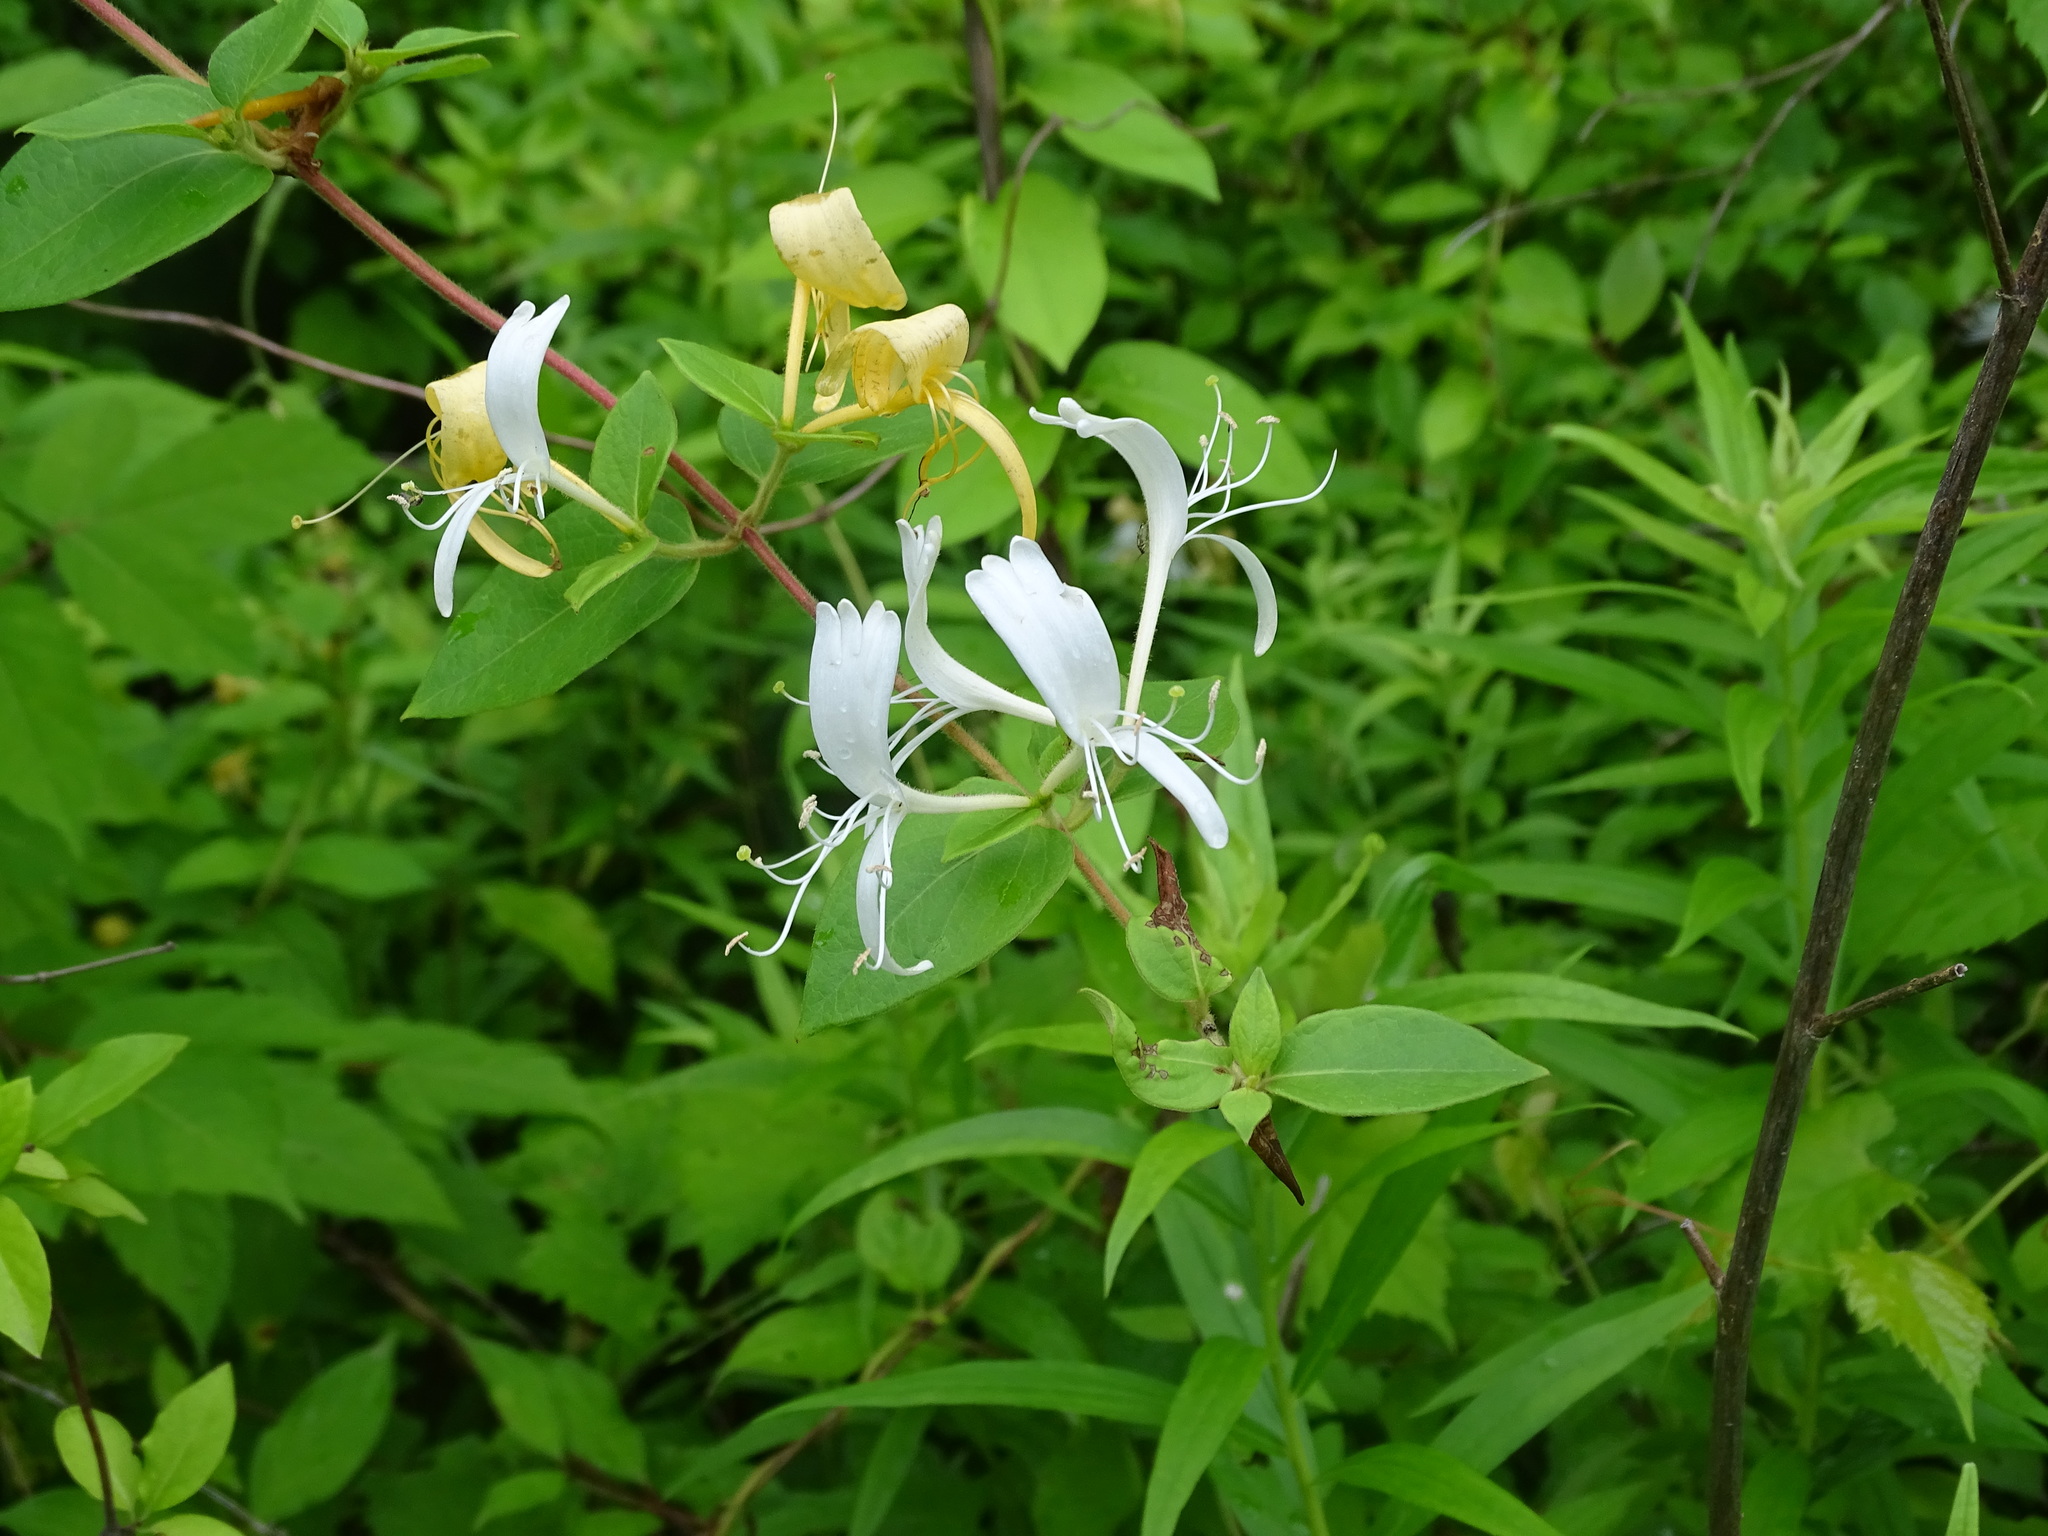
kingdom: Plantae
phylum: Tracheophyta
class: Magnoliopsida
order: Dipsacales
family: Caprifoliaceae
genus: Lonicera
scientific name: Lonicera japonica
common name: Japanese honeysuckle
